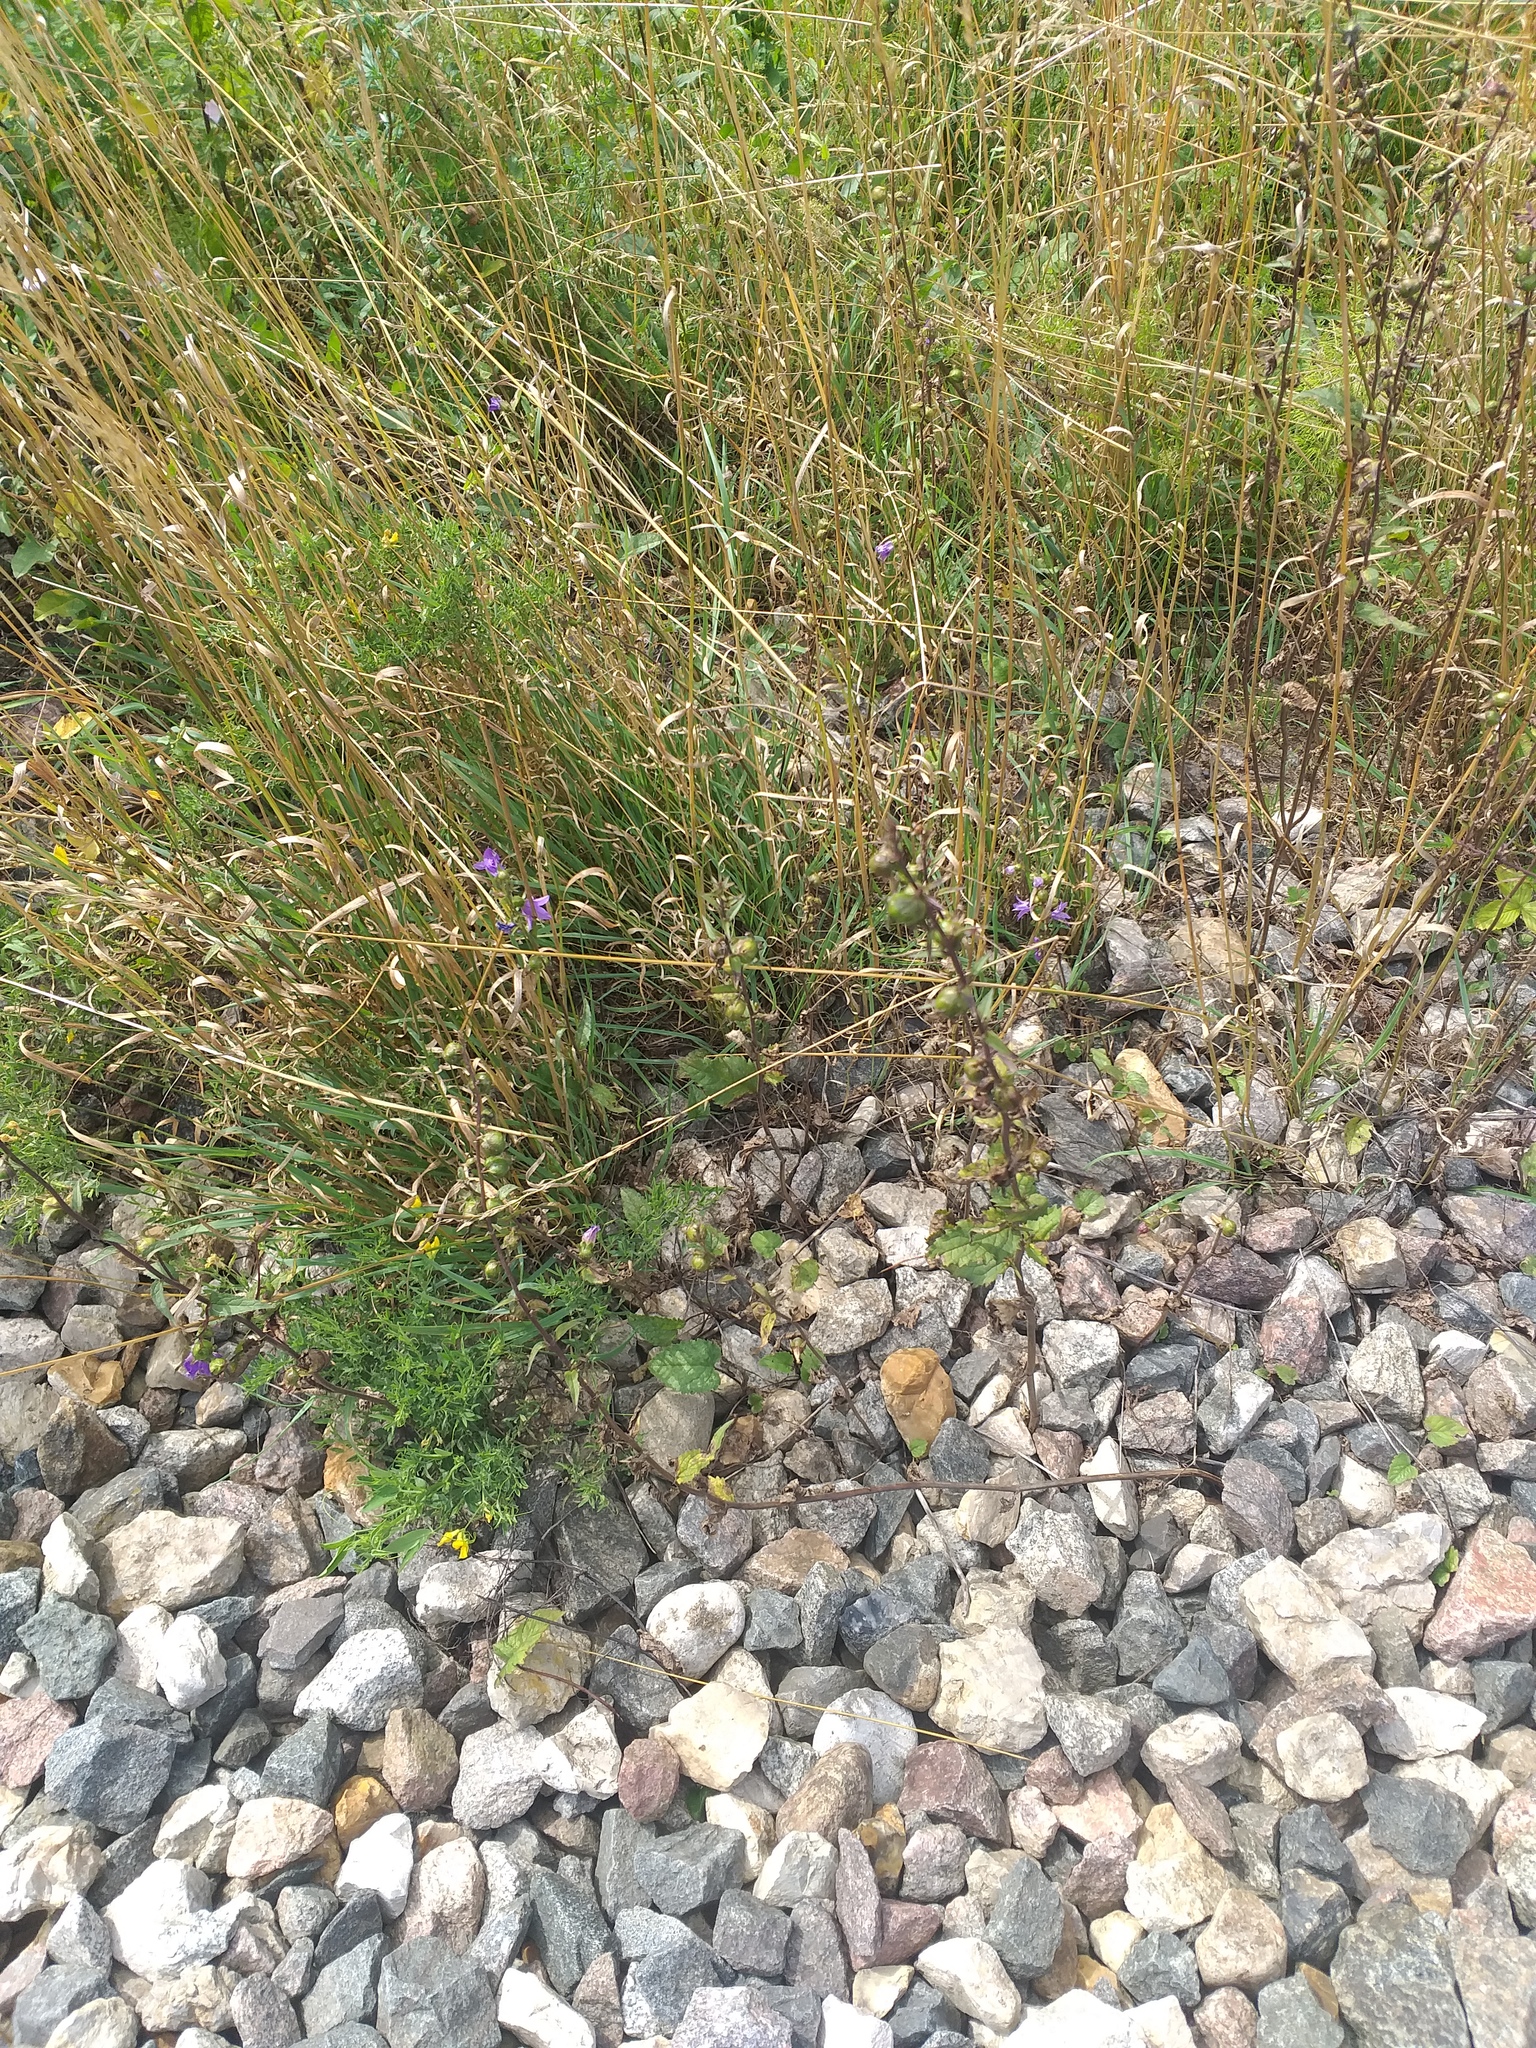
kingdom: Plantae
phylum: Tracheophyta
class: Magnoliopsida
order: Asterales
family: Campanulaceae
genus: Campanula
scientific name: Campanula rapunculoides
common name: Creeping bellflower
